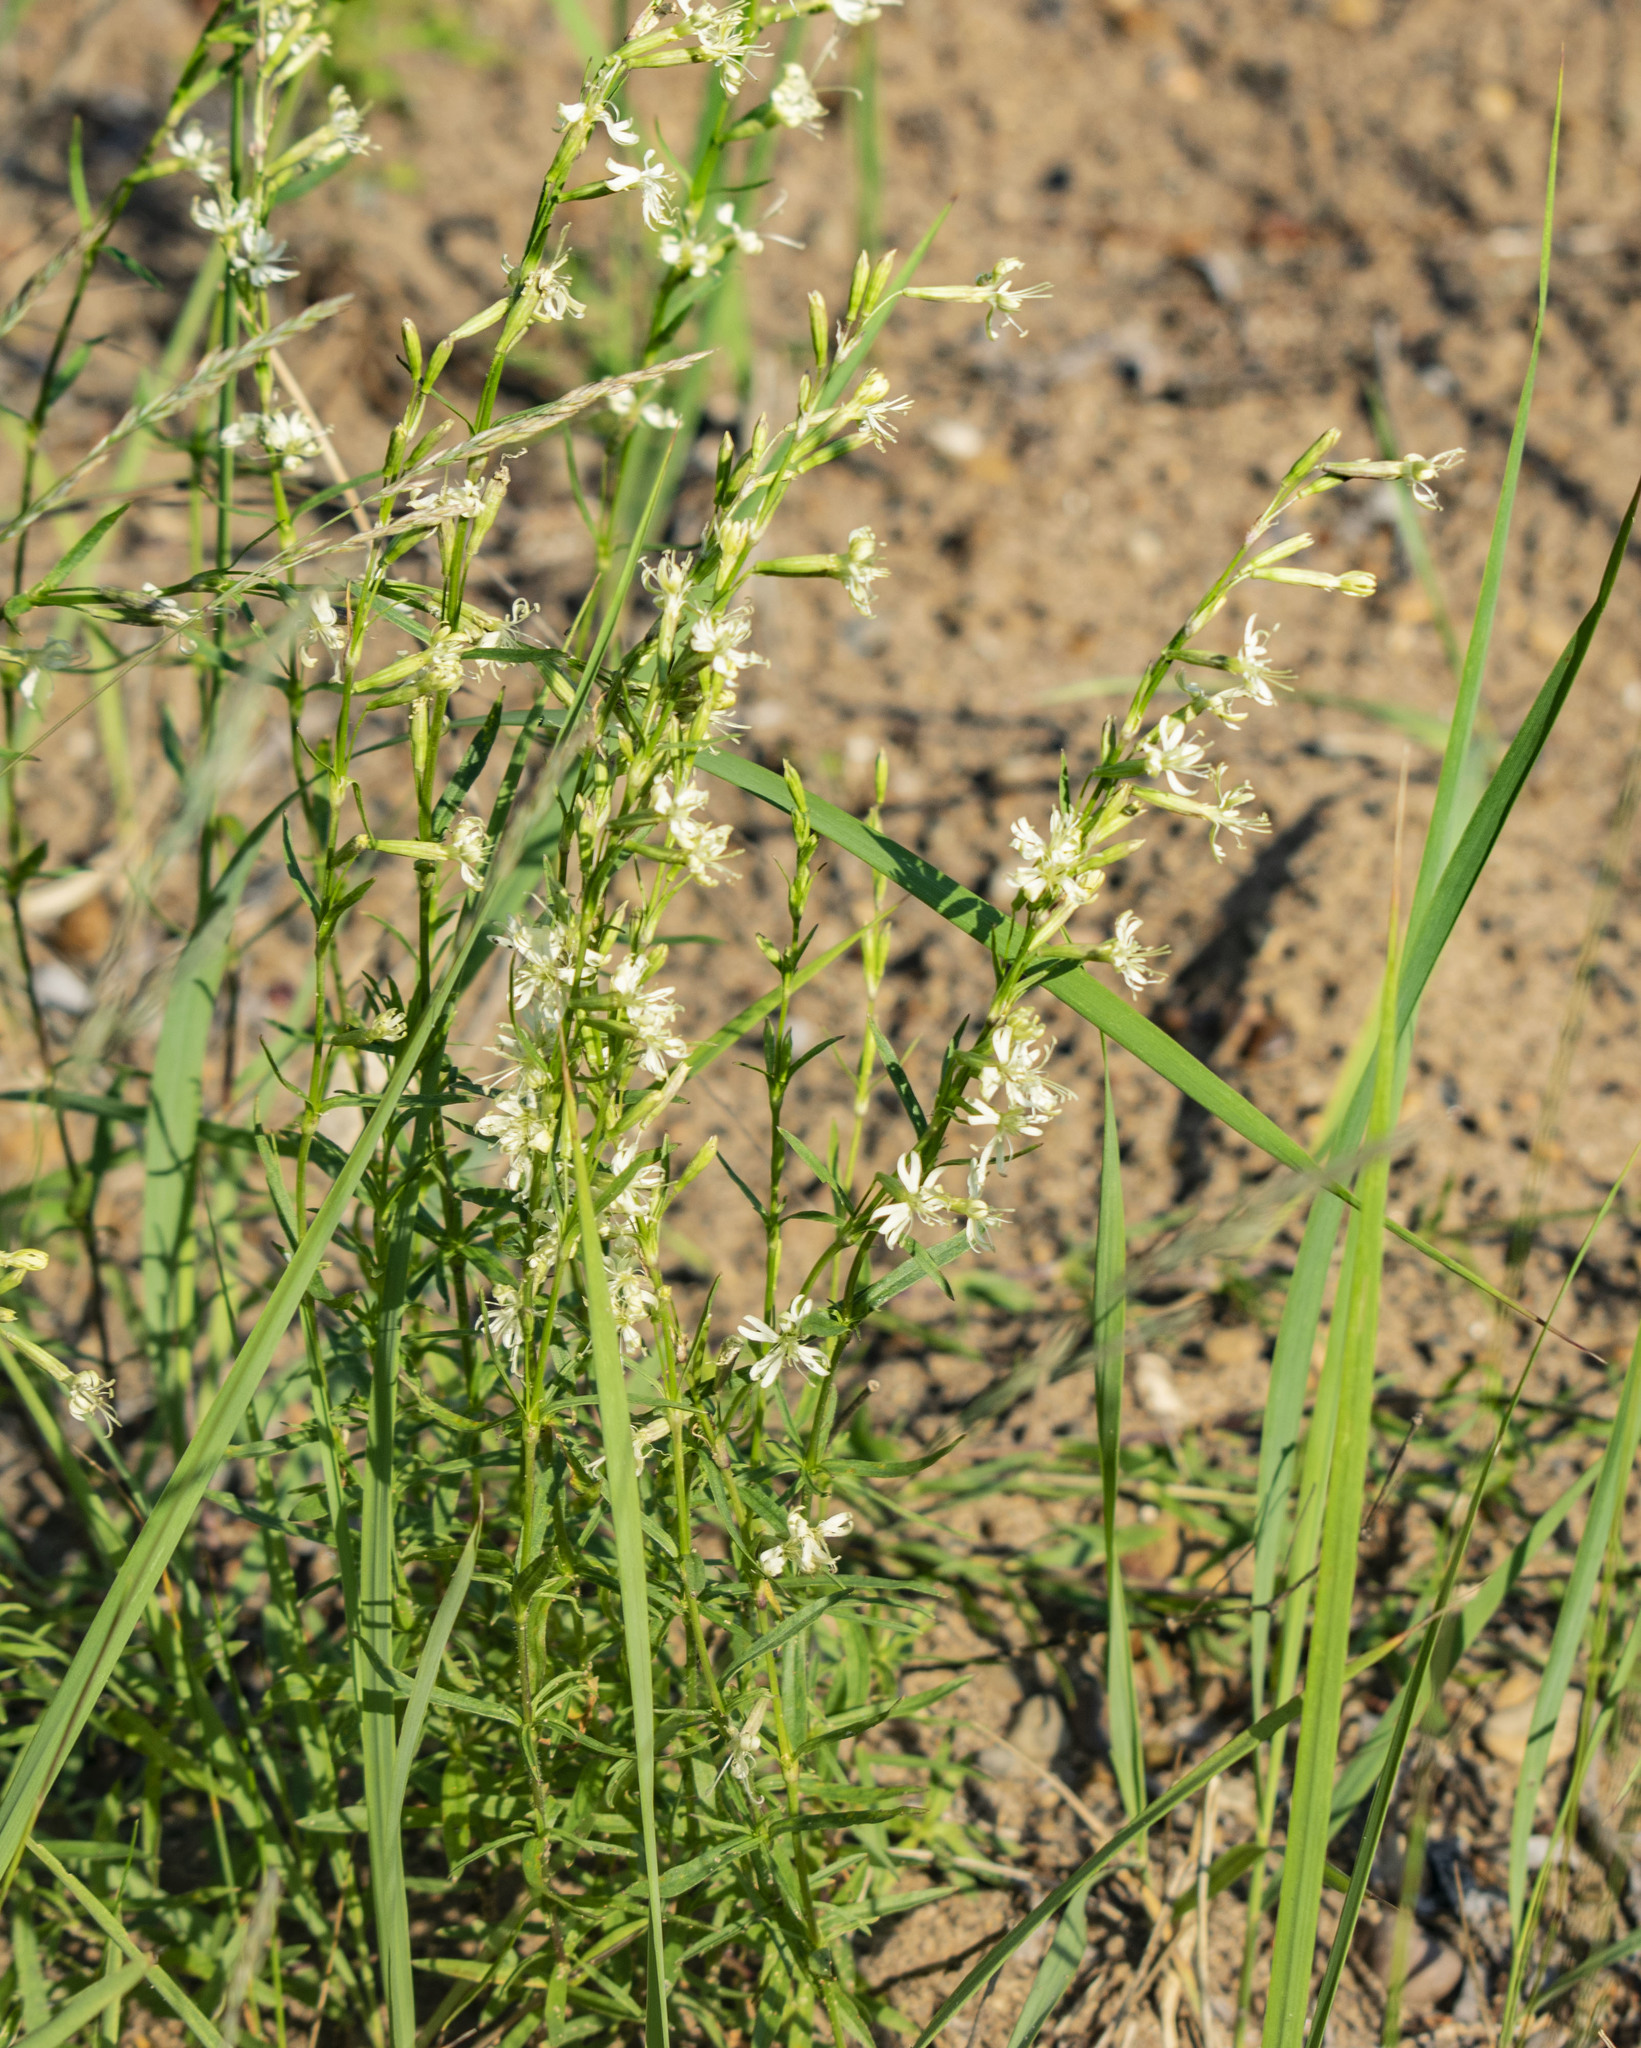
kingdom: Plantae
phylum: Tracheophyta
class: Magnoliopsida
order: Caryophyllales
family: Caryophyllaceae
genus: Silene
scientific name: Silene tatarica
